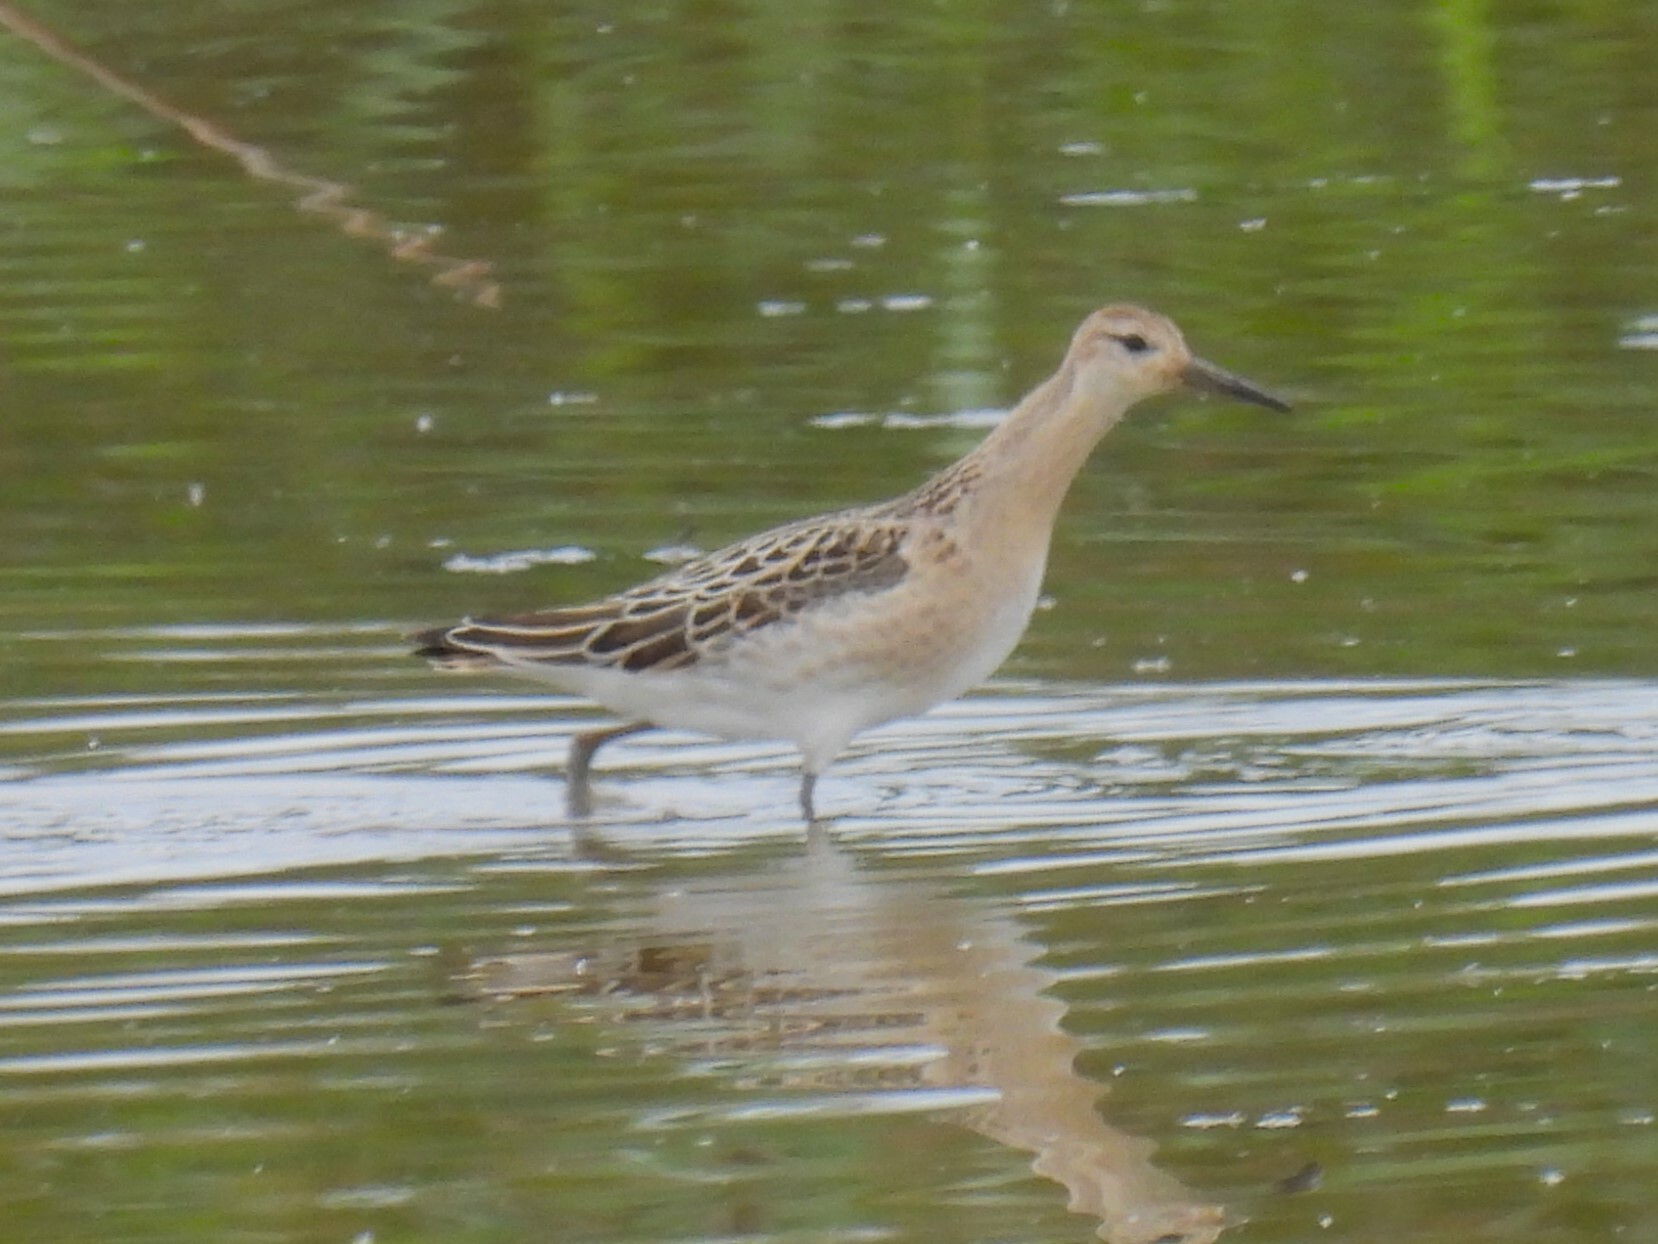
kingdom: Animalia
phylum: Chordata
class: Aves
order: Charadriiformes
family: Scolopacidae
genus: Calidris
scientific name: Calidris pugnax
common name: Ruff
